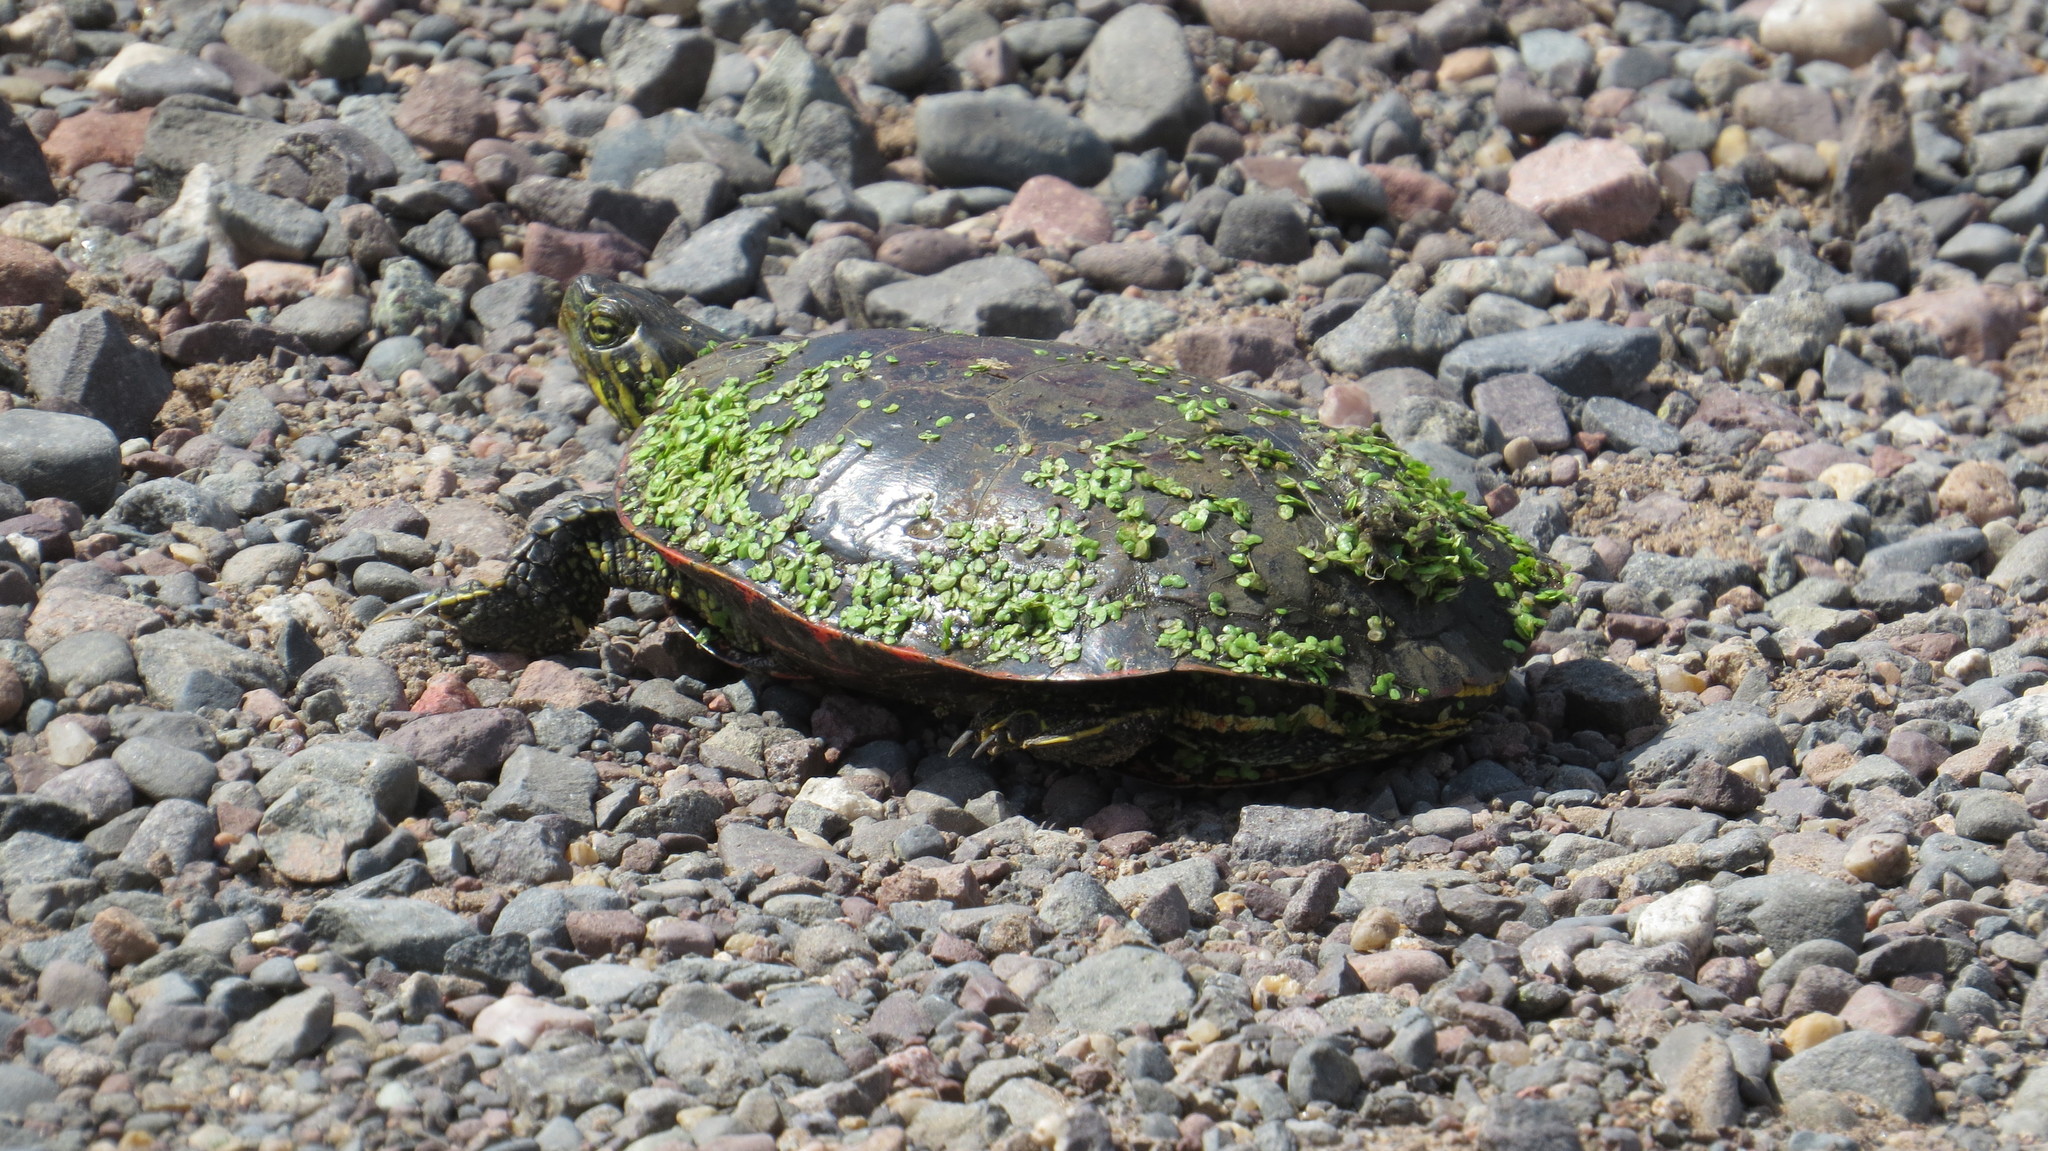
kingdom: Animalia
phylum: Chordata
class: Testudines
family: Emydidae
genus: Chrysemys
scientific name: Chrysemys picta
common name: Painted turtle
